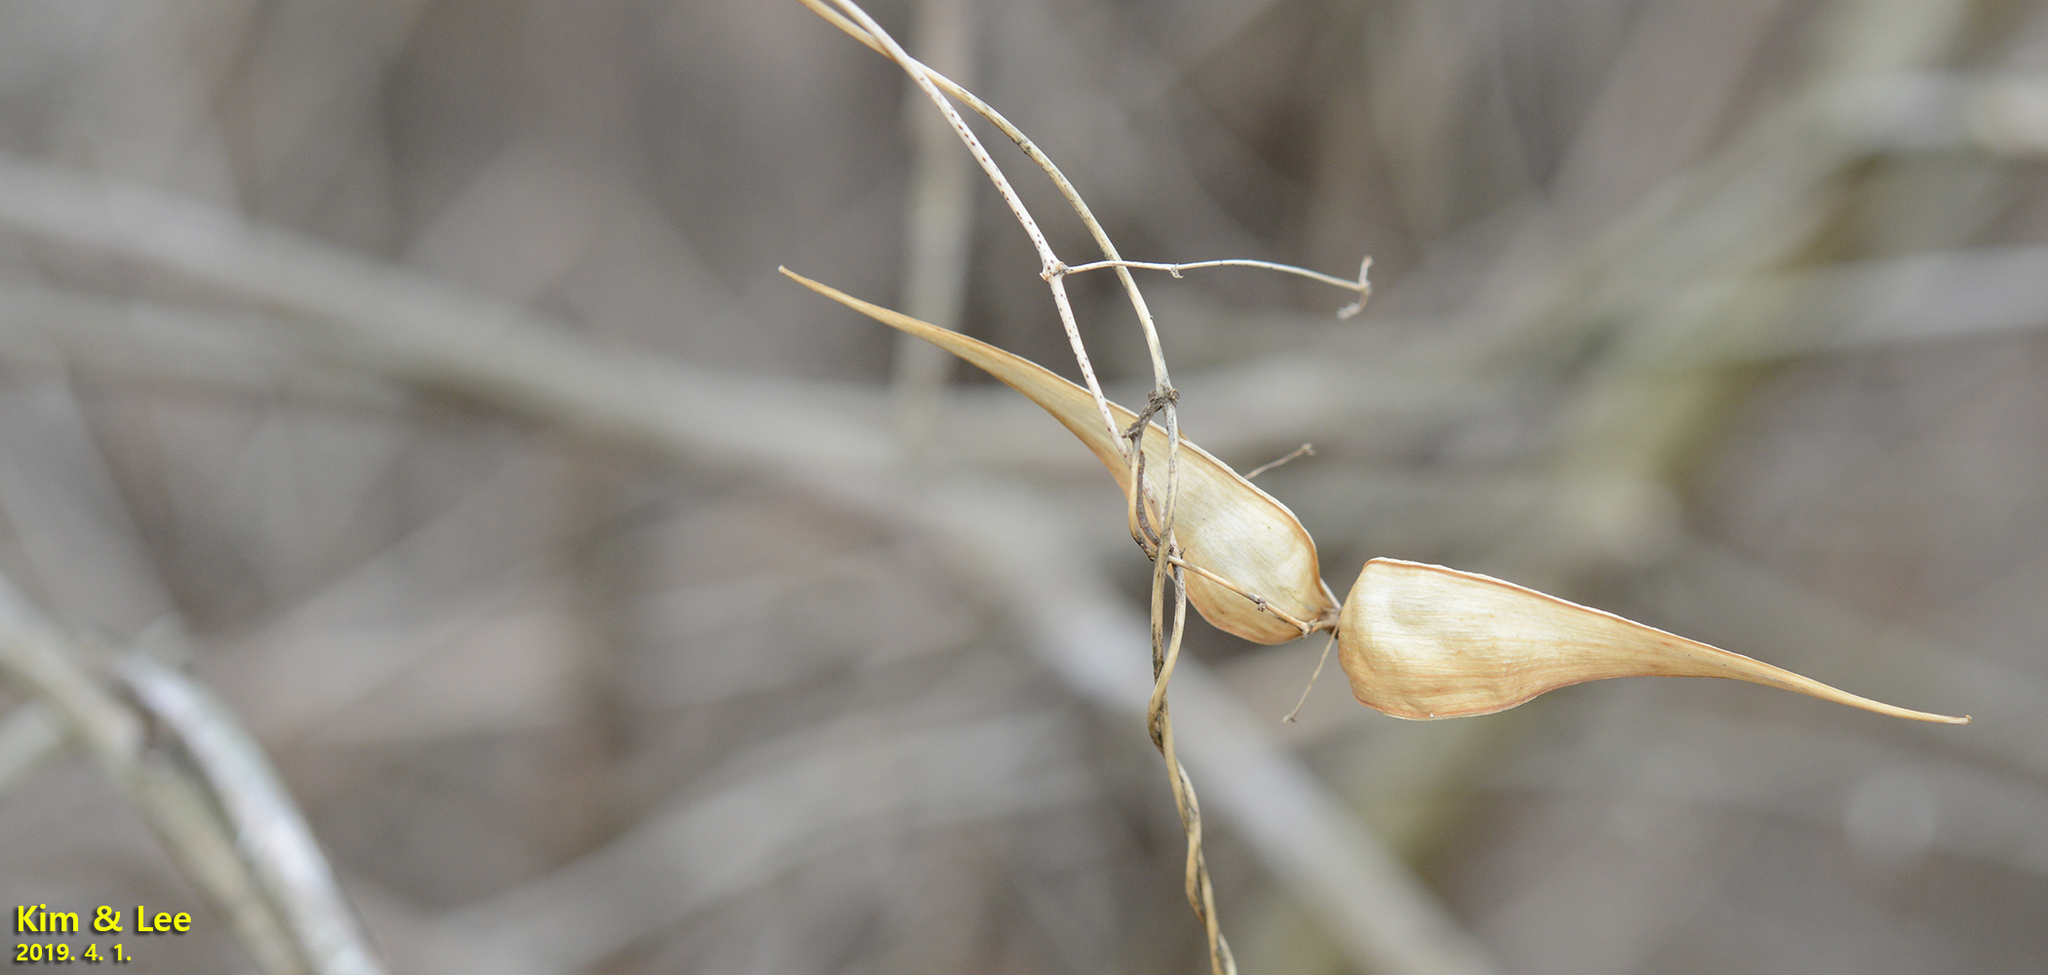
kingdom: Plantae
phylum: Tracheophyta
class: Magnoliopsida
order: Gentianales
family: Apocynaceae
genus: Vincetoxicum
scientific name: Vincetoxicum floribundum
